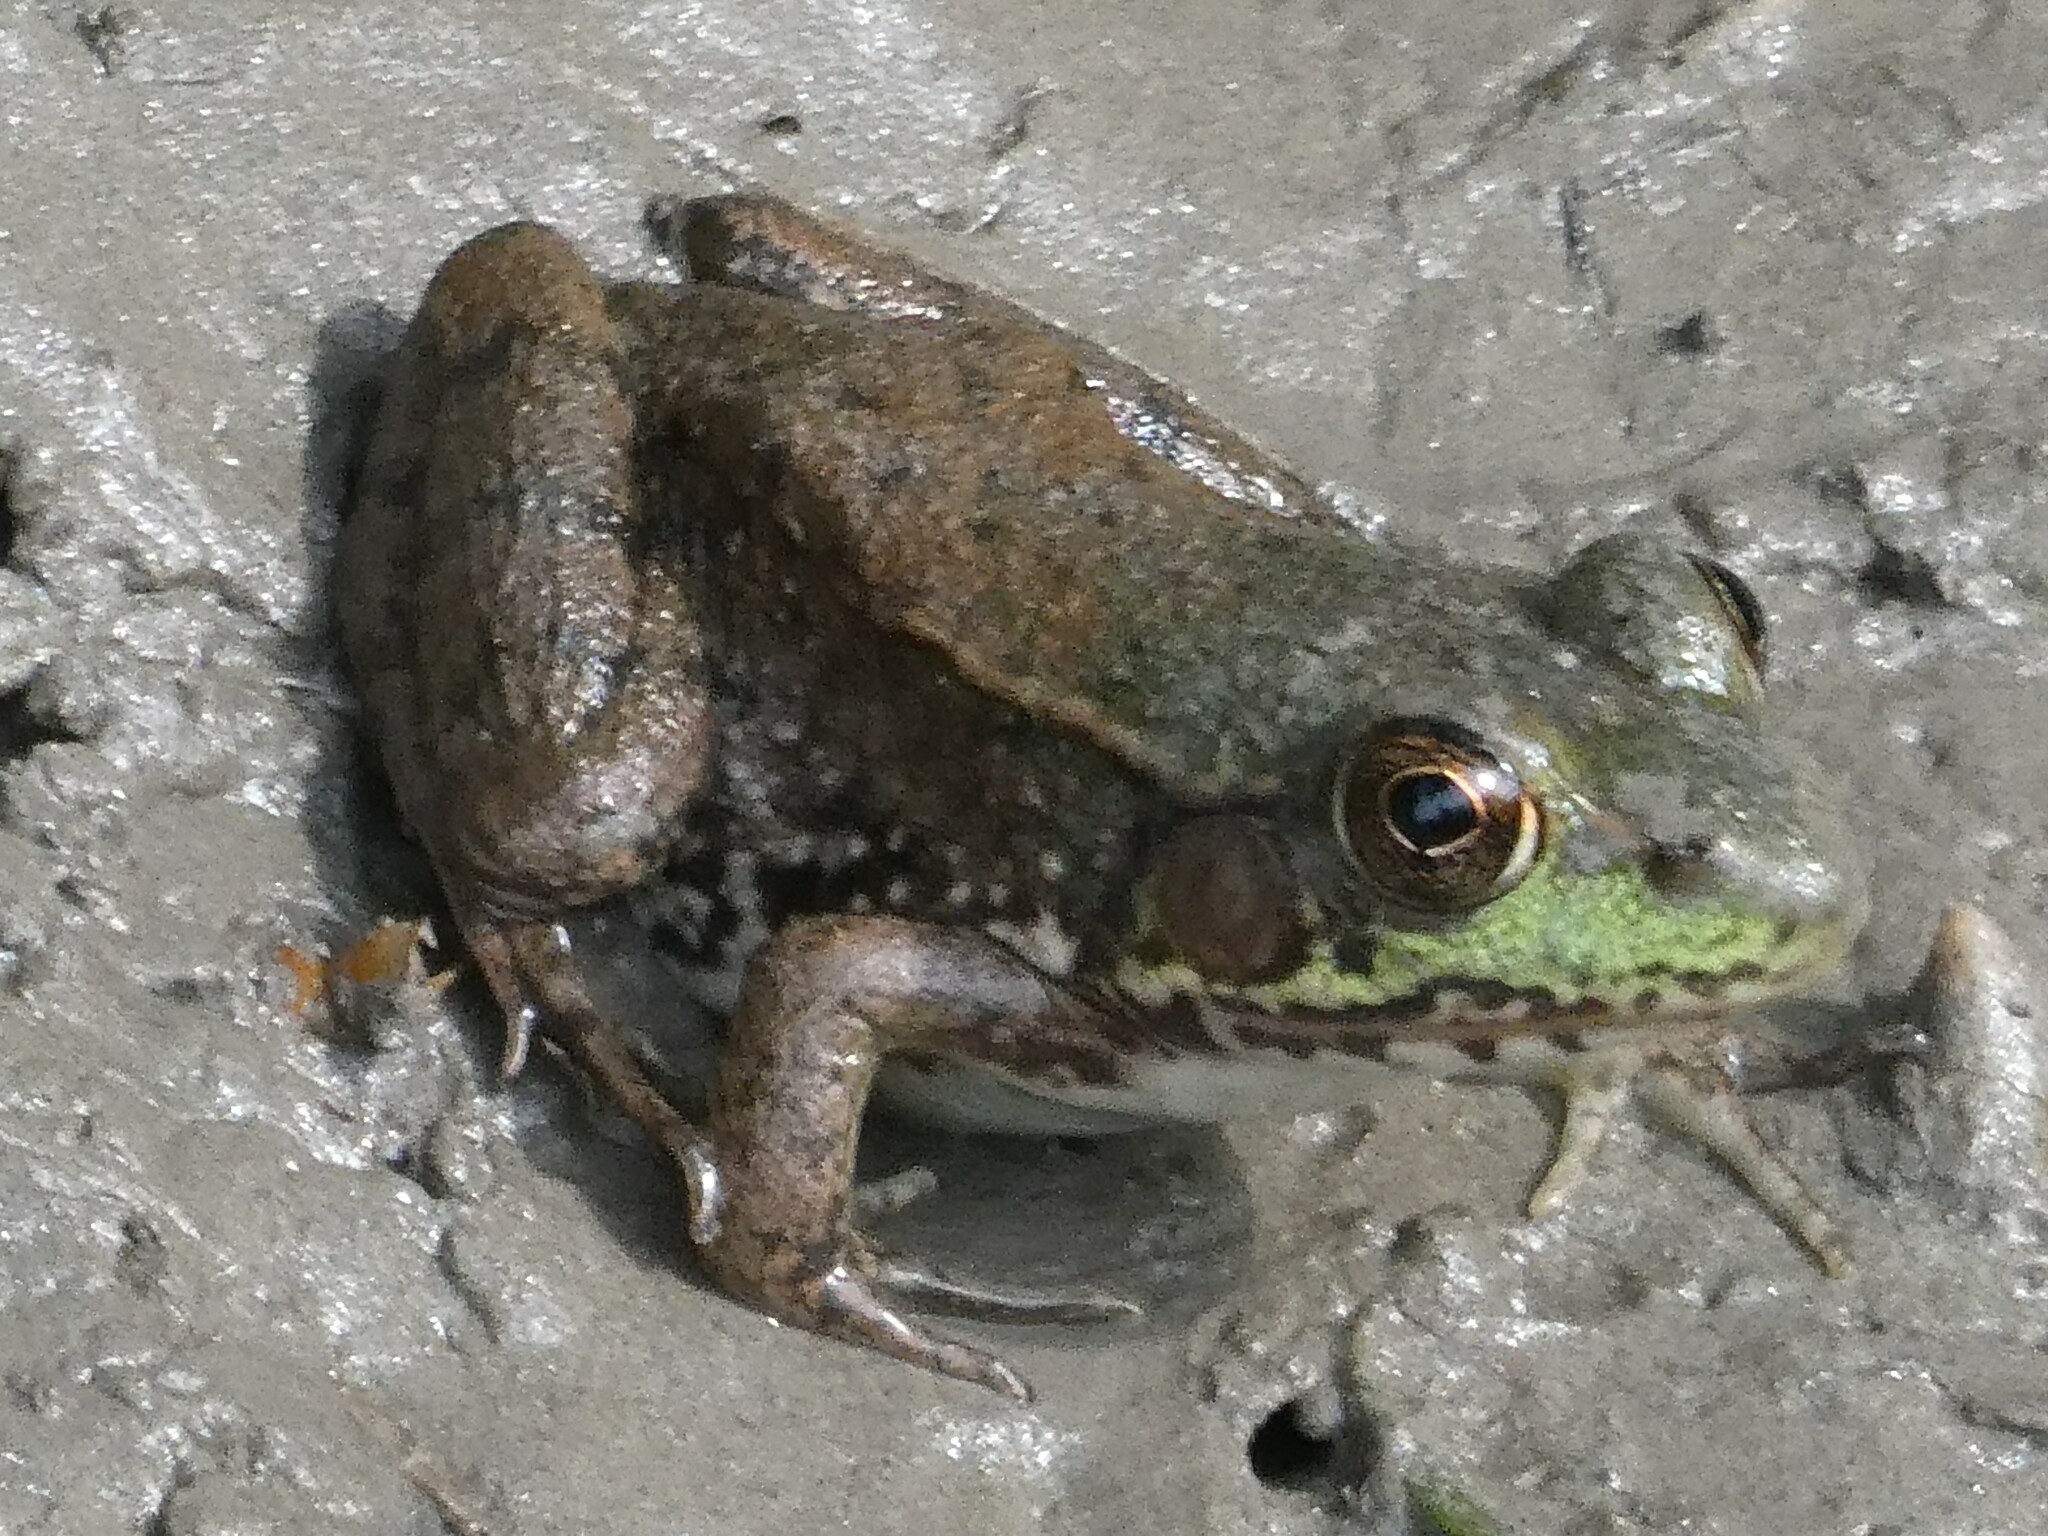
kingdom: Animalia
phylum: Chordata
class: Amphibia
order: Anura
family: Ranidae
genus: Lithobates
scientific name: Lithobates clamitans
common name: Green frog
